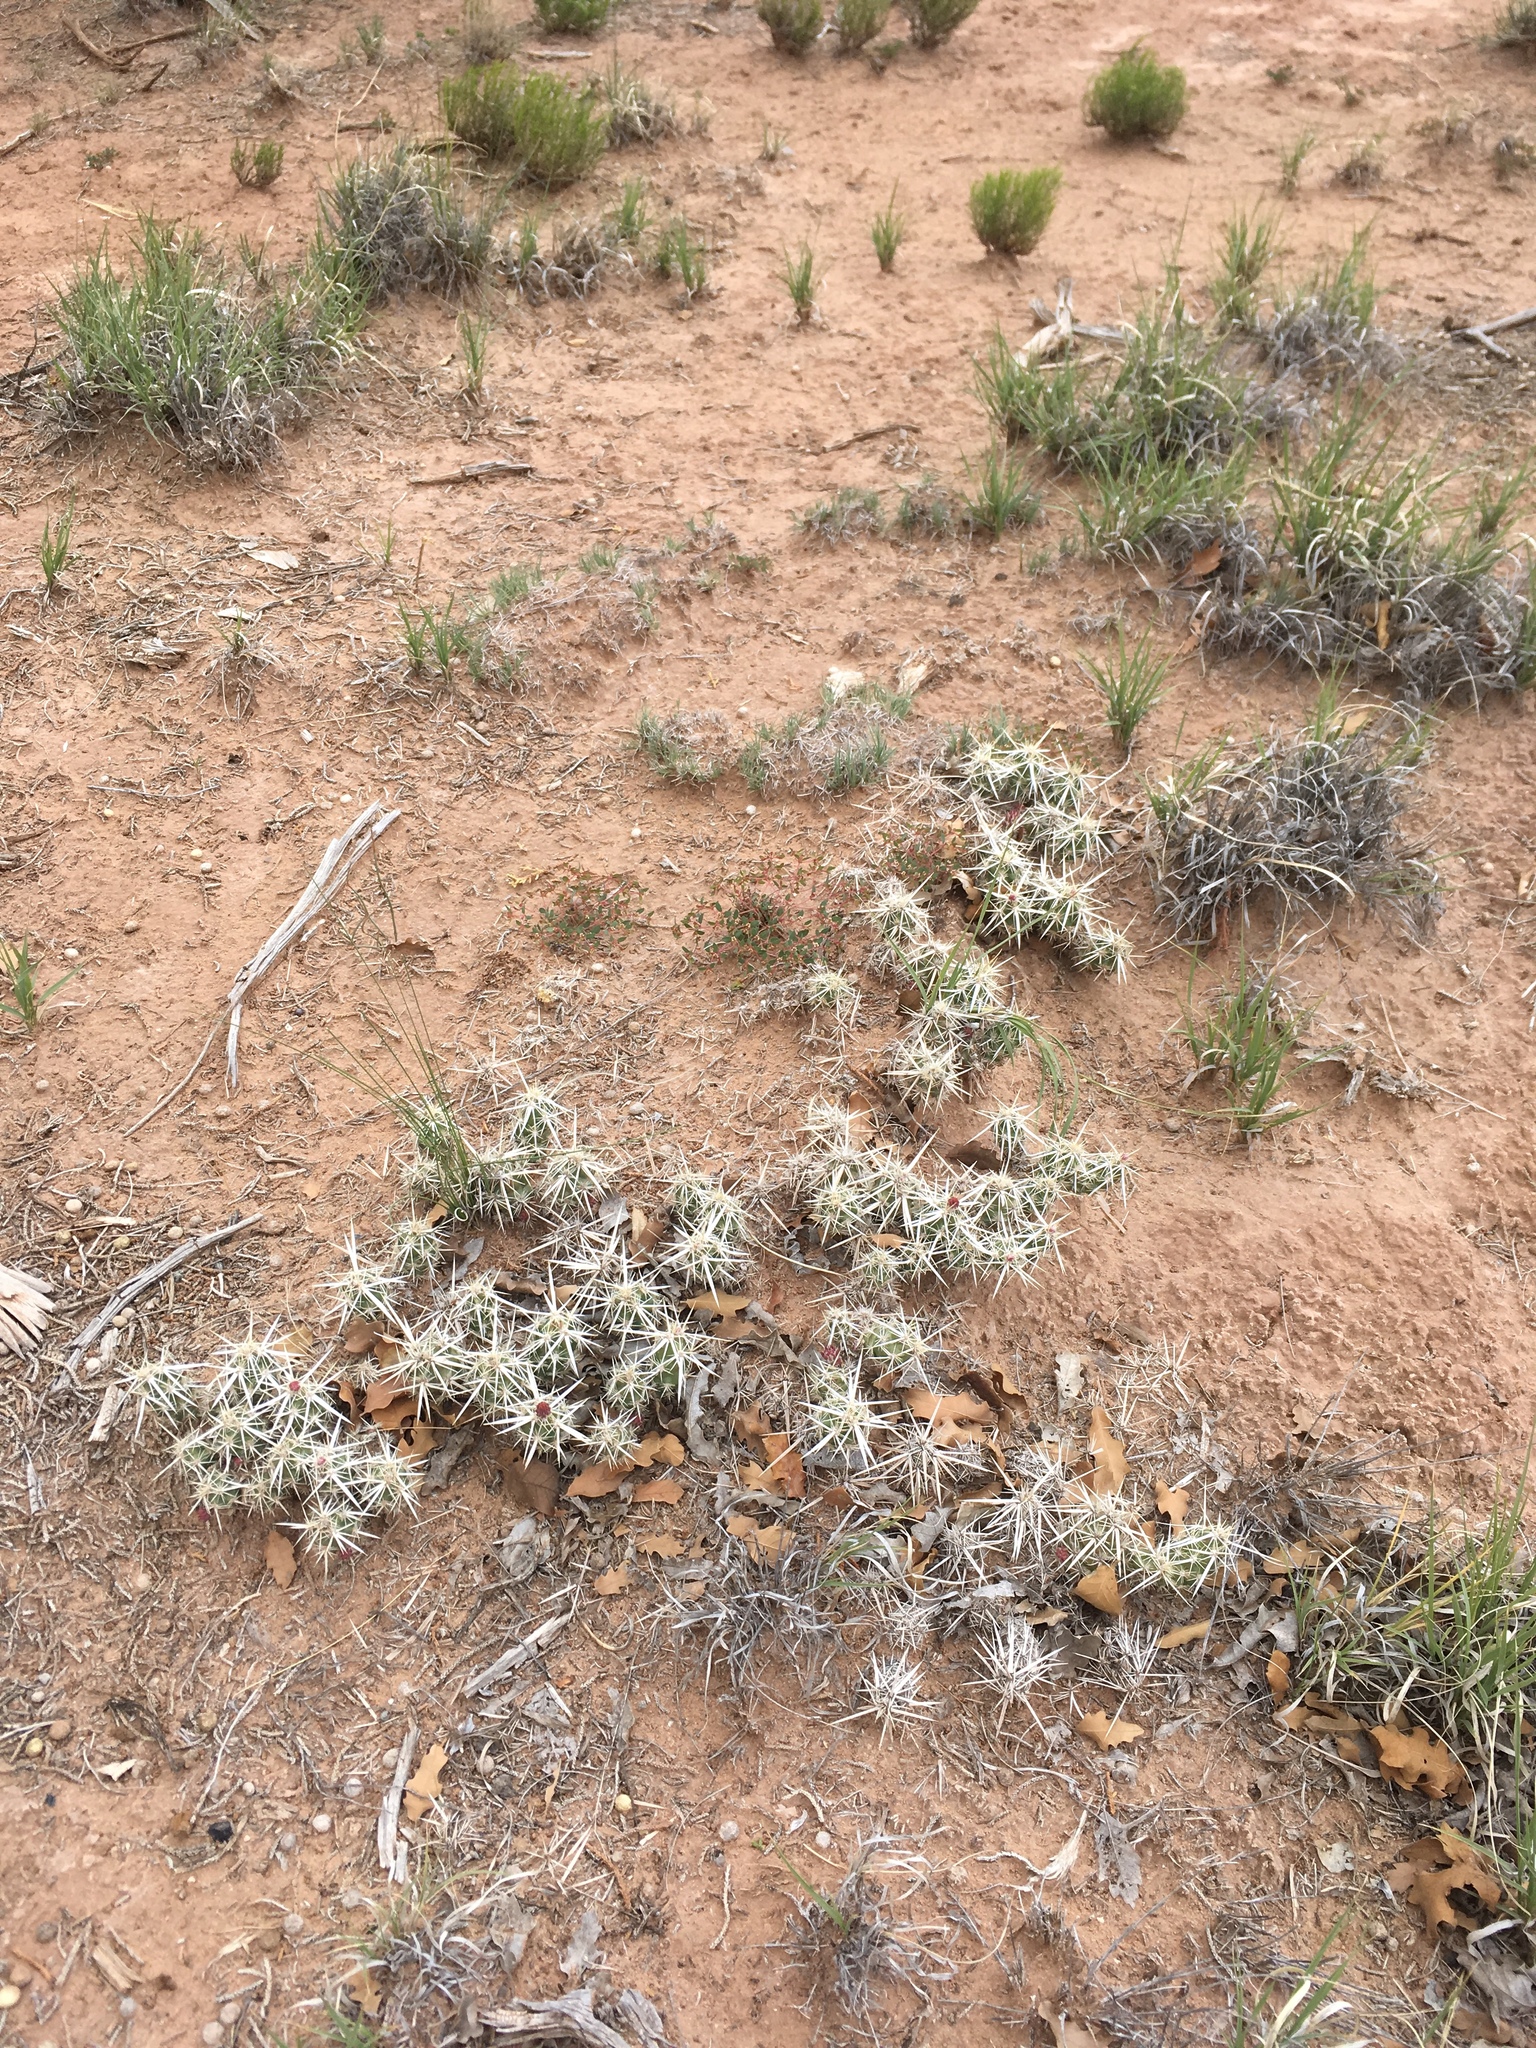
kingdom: Plantae
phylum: Tracheophyta
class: Magnoliopsida
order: Caryophyllales
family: Cactaceae
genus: Grusonia
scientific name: Grusonia clavata
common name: Club cholla
